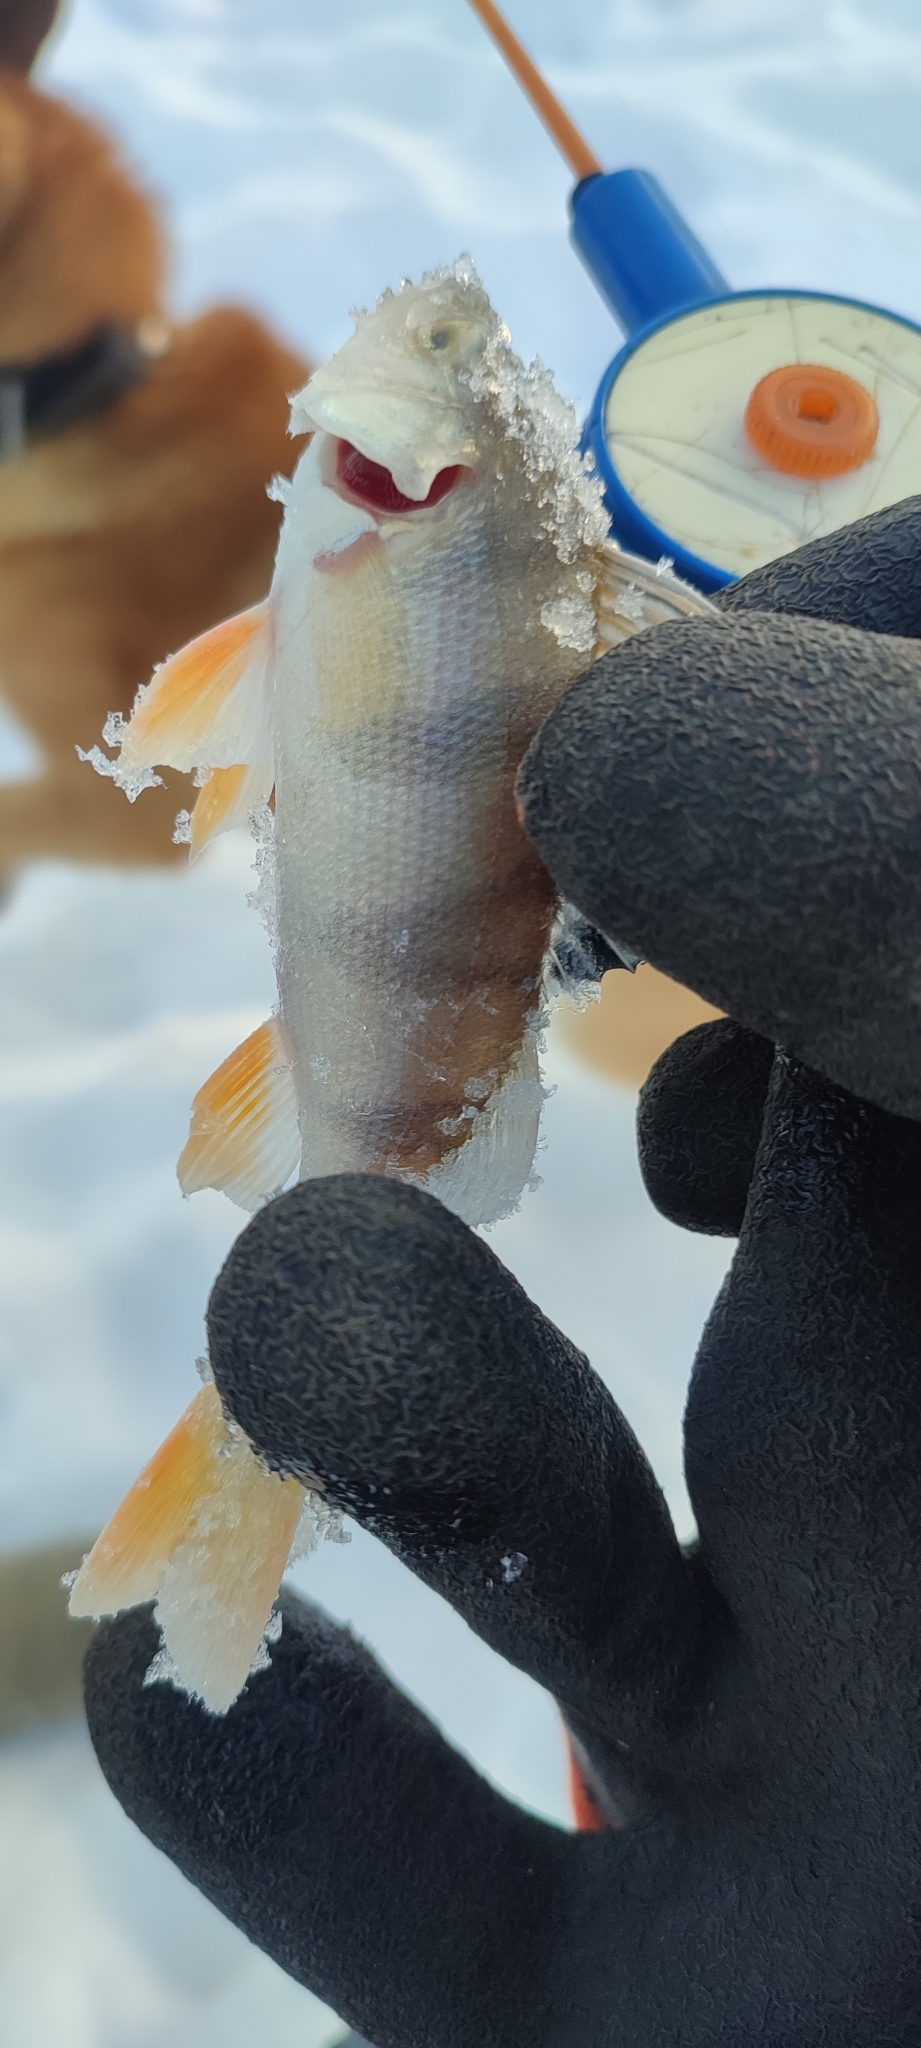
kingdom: Animalia
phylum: Chordata
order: Perciformes
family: Percidae
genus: Perca
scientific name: Perca fluviatilis
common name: Perch
